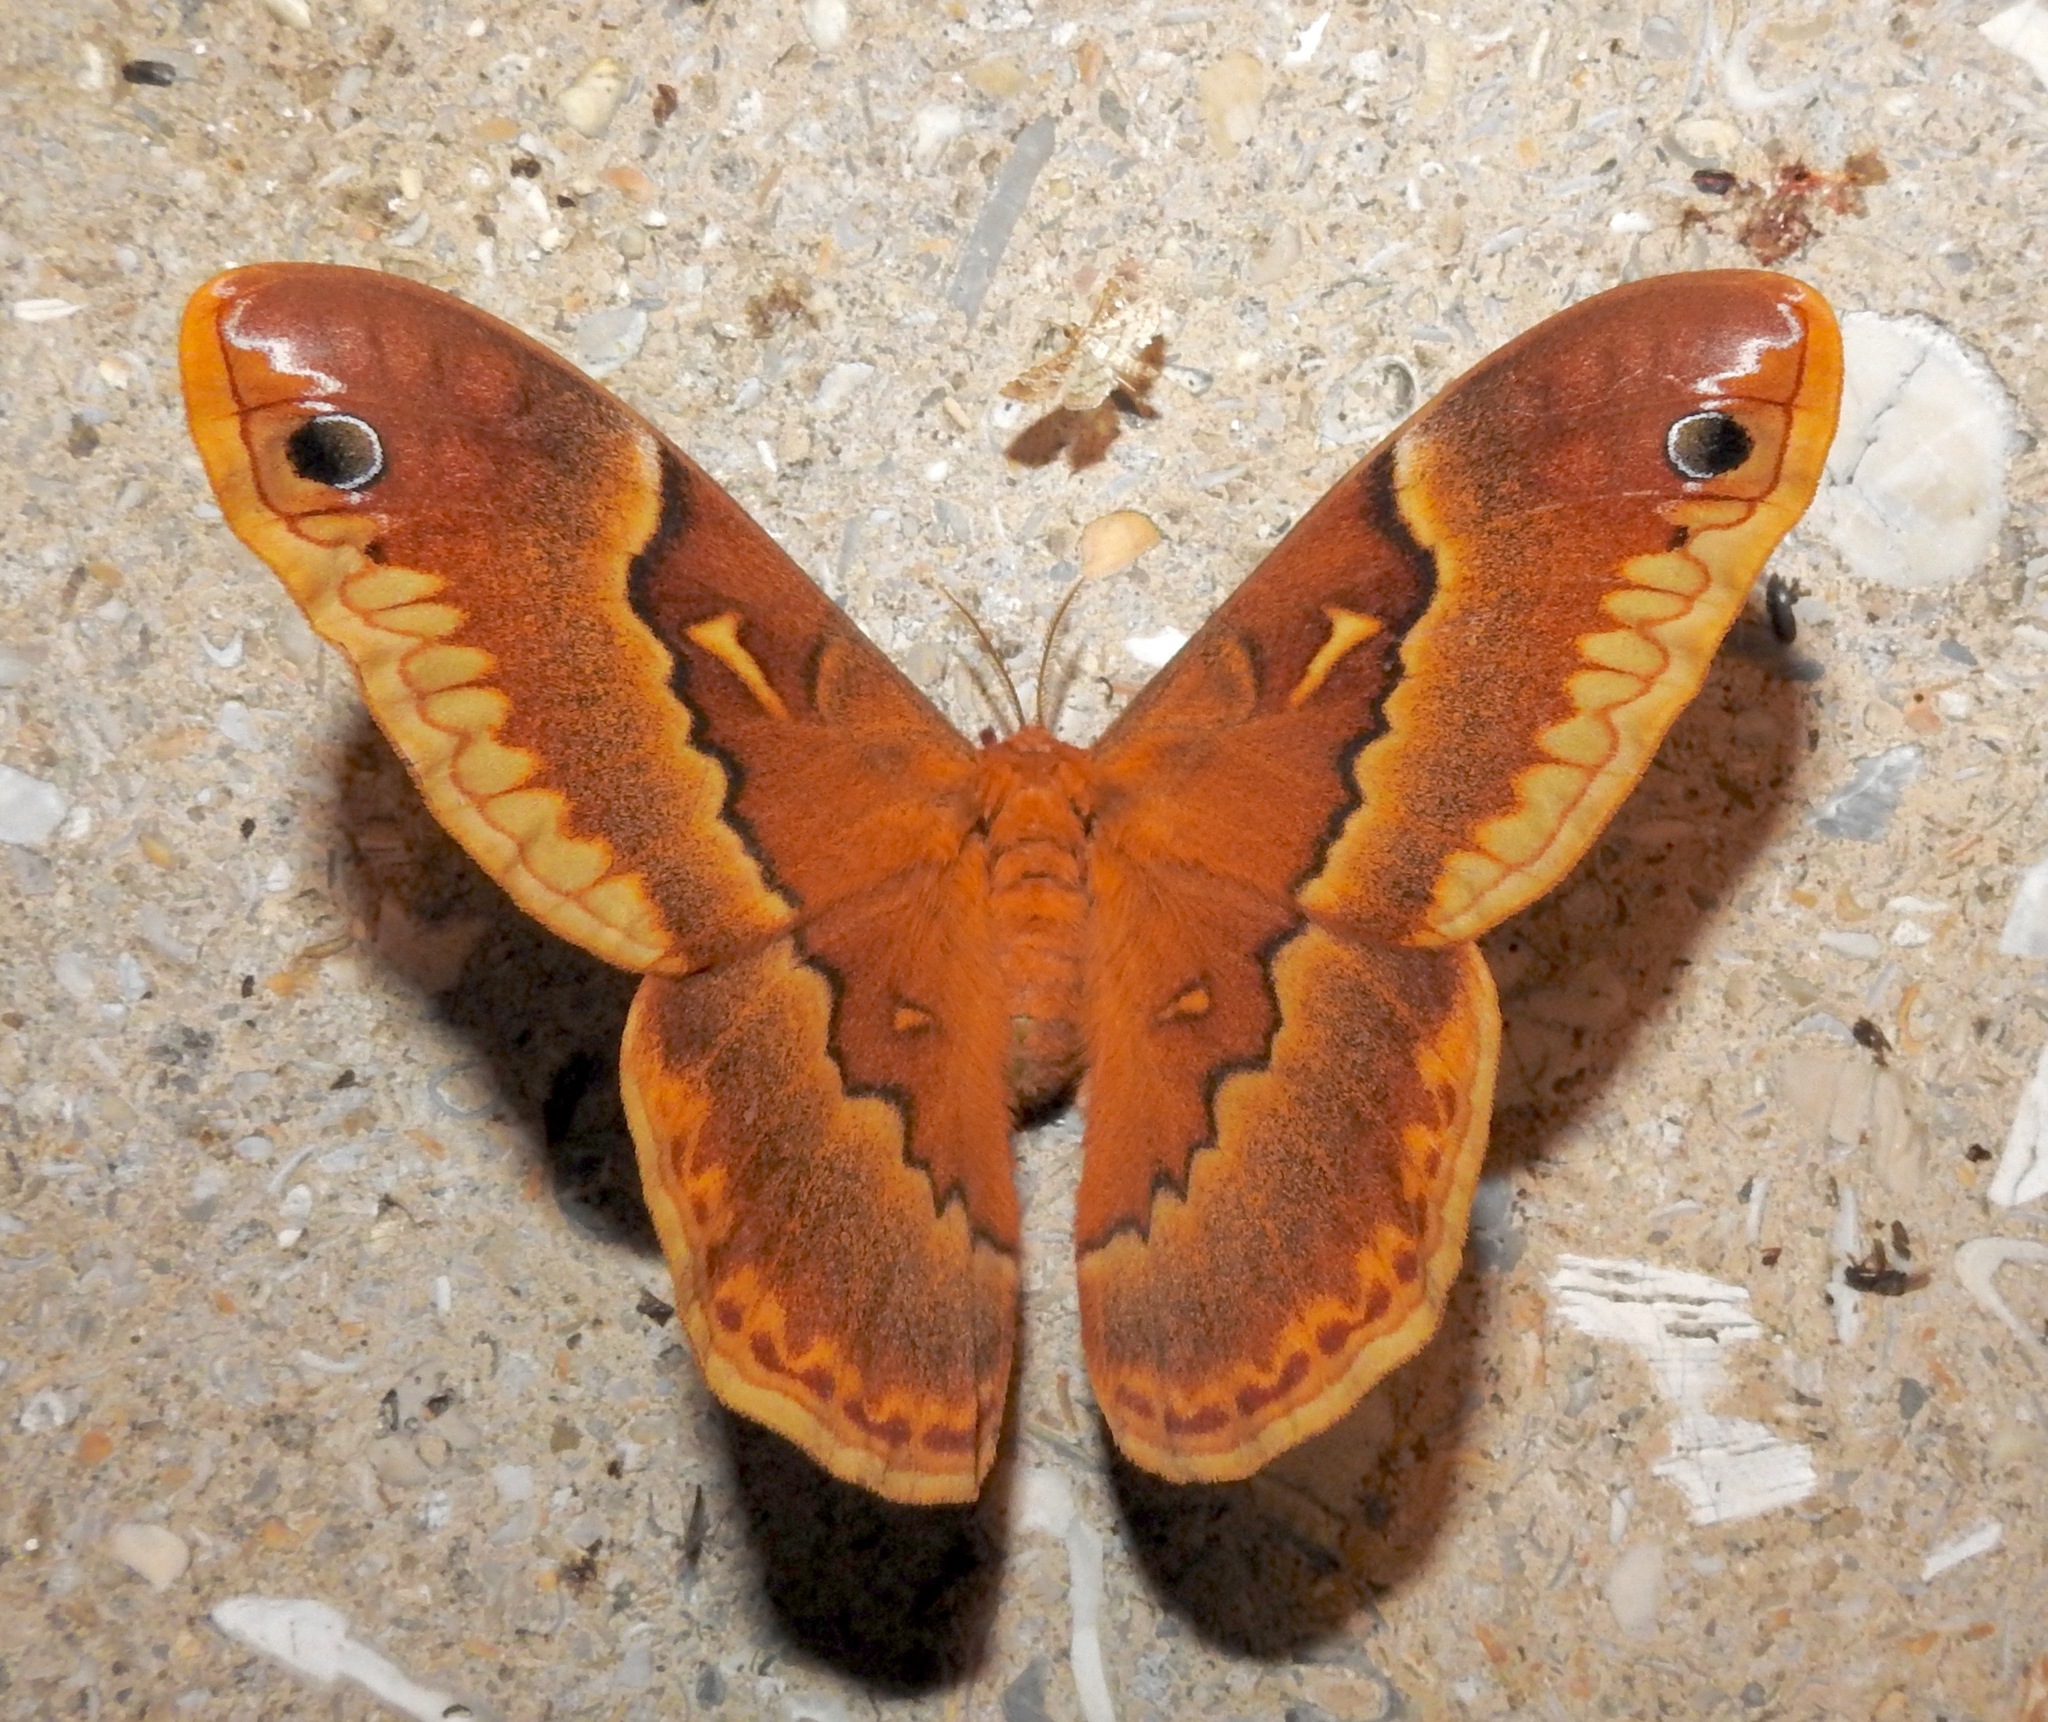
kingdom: Animalia
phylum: Arthropoda
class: Insecta
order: Lepidoptera
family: Saturniidae
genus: Callosamia
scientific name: Callosamia securifera
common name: Sweetbay silkmoth
